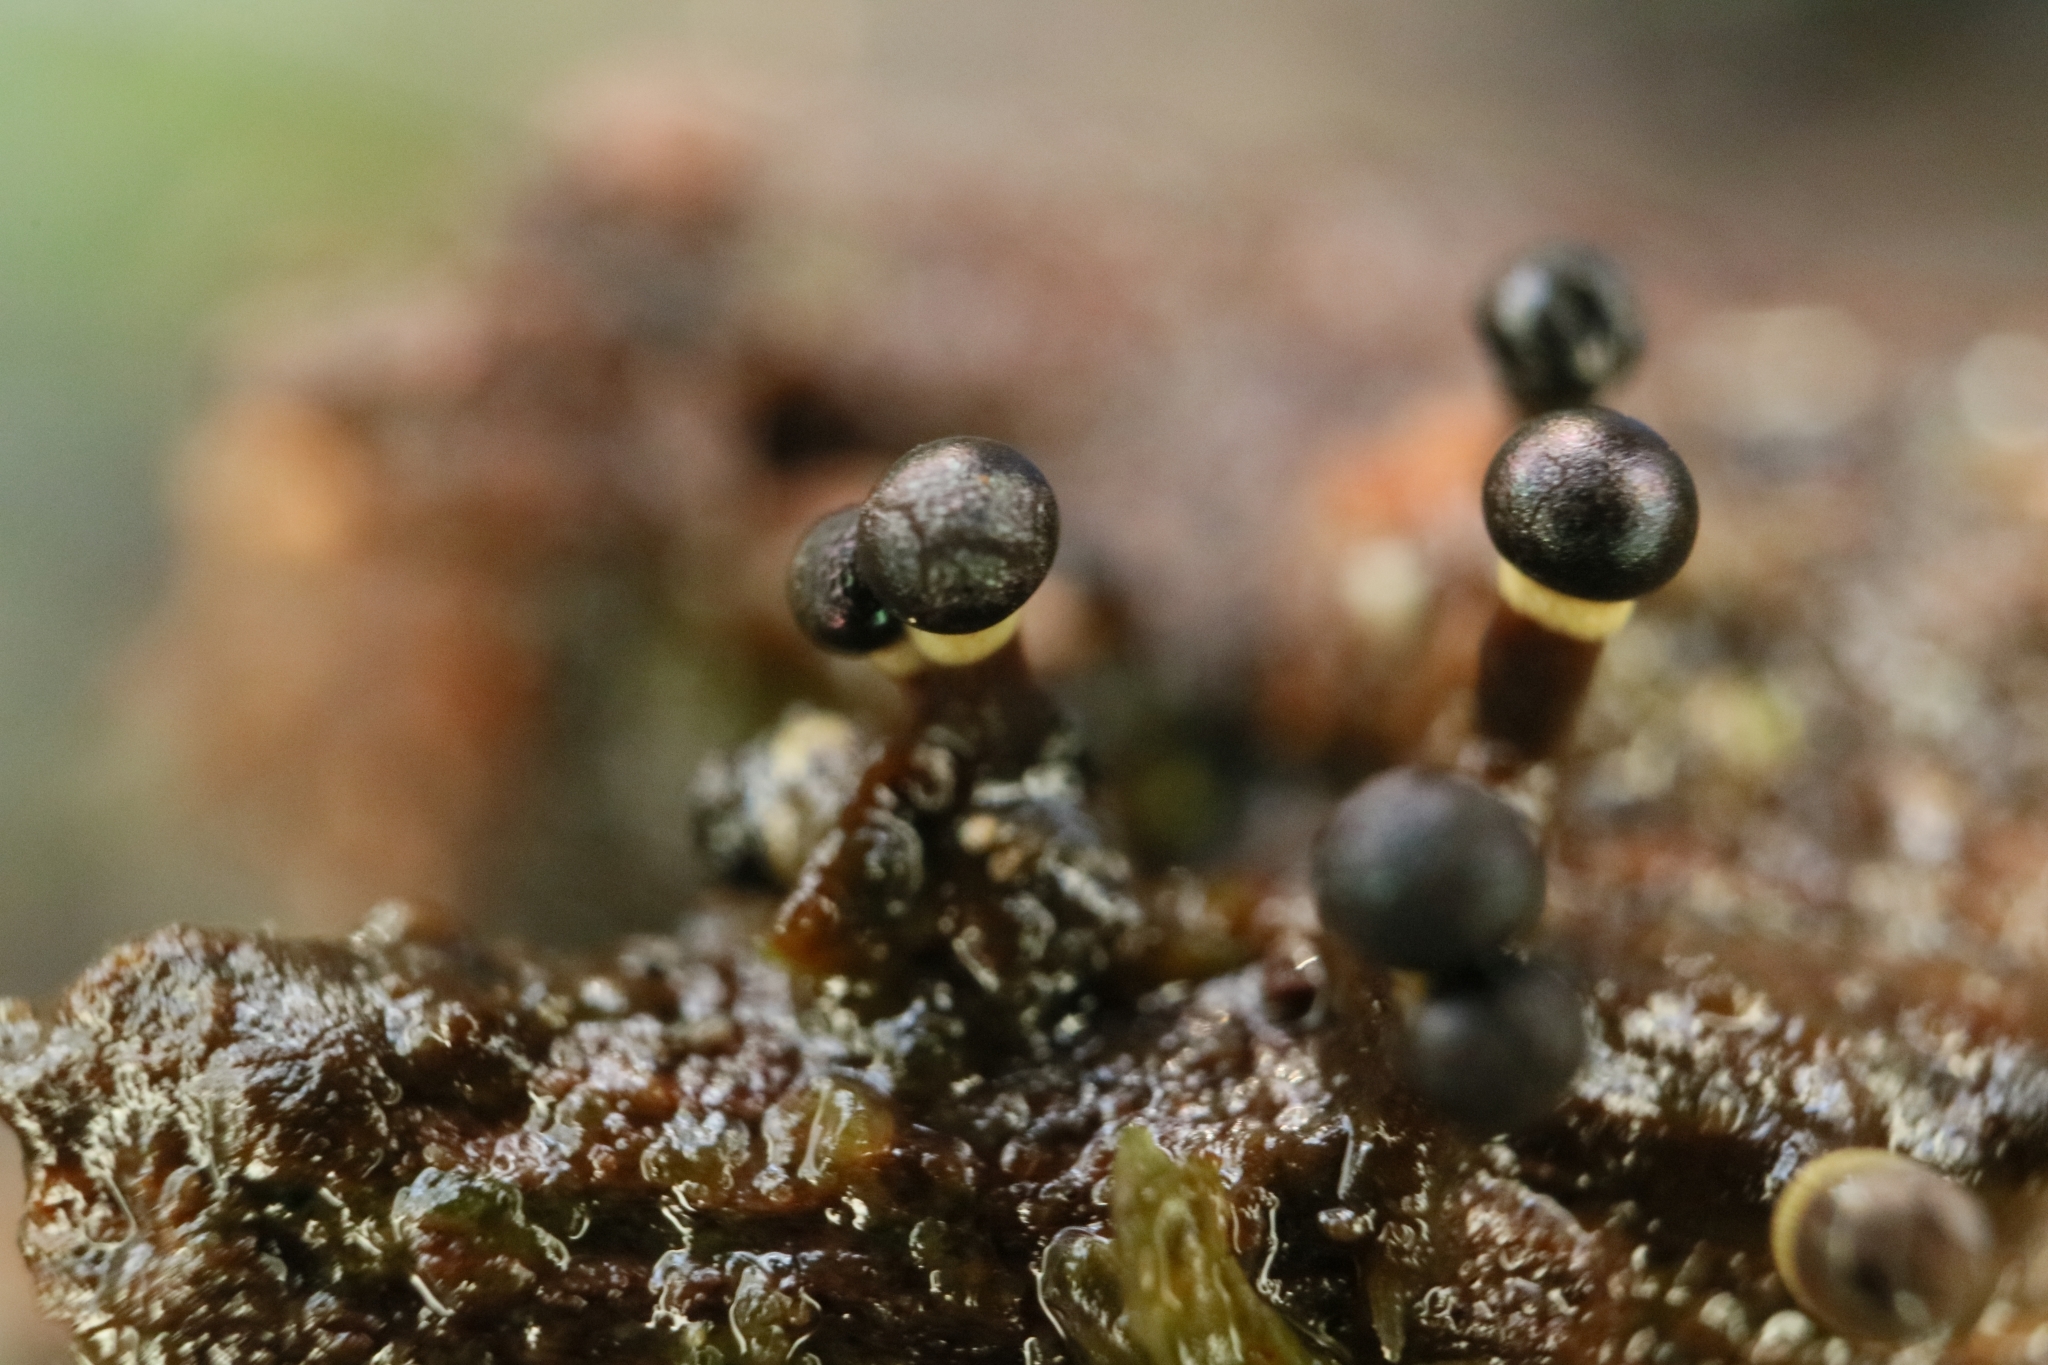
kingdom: Protozoa
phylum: Mycetozoa
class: Myxomycetes
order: Physarales
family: Elaeomyxaceae
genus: Elaeomyxa
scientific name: Elaeomyxa cerifera
